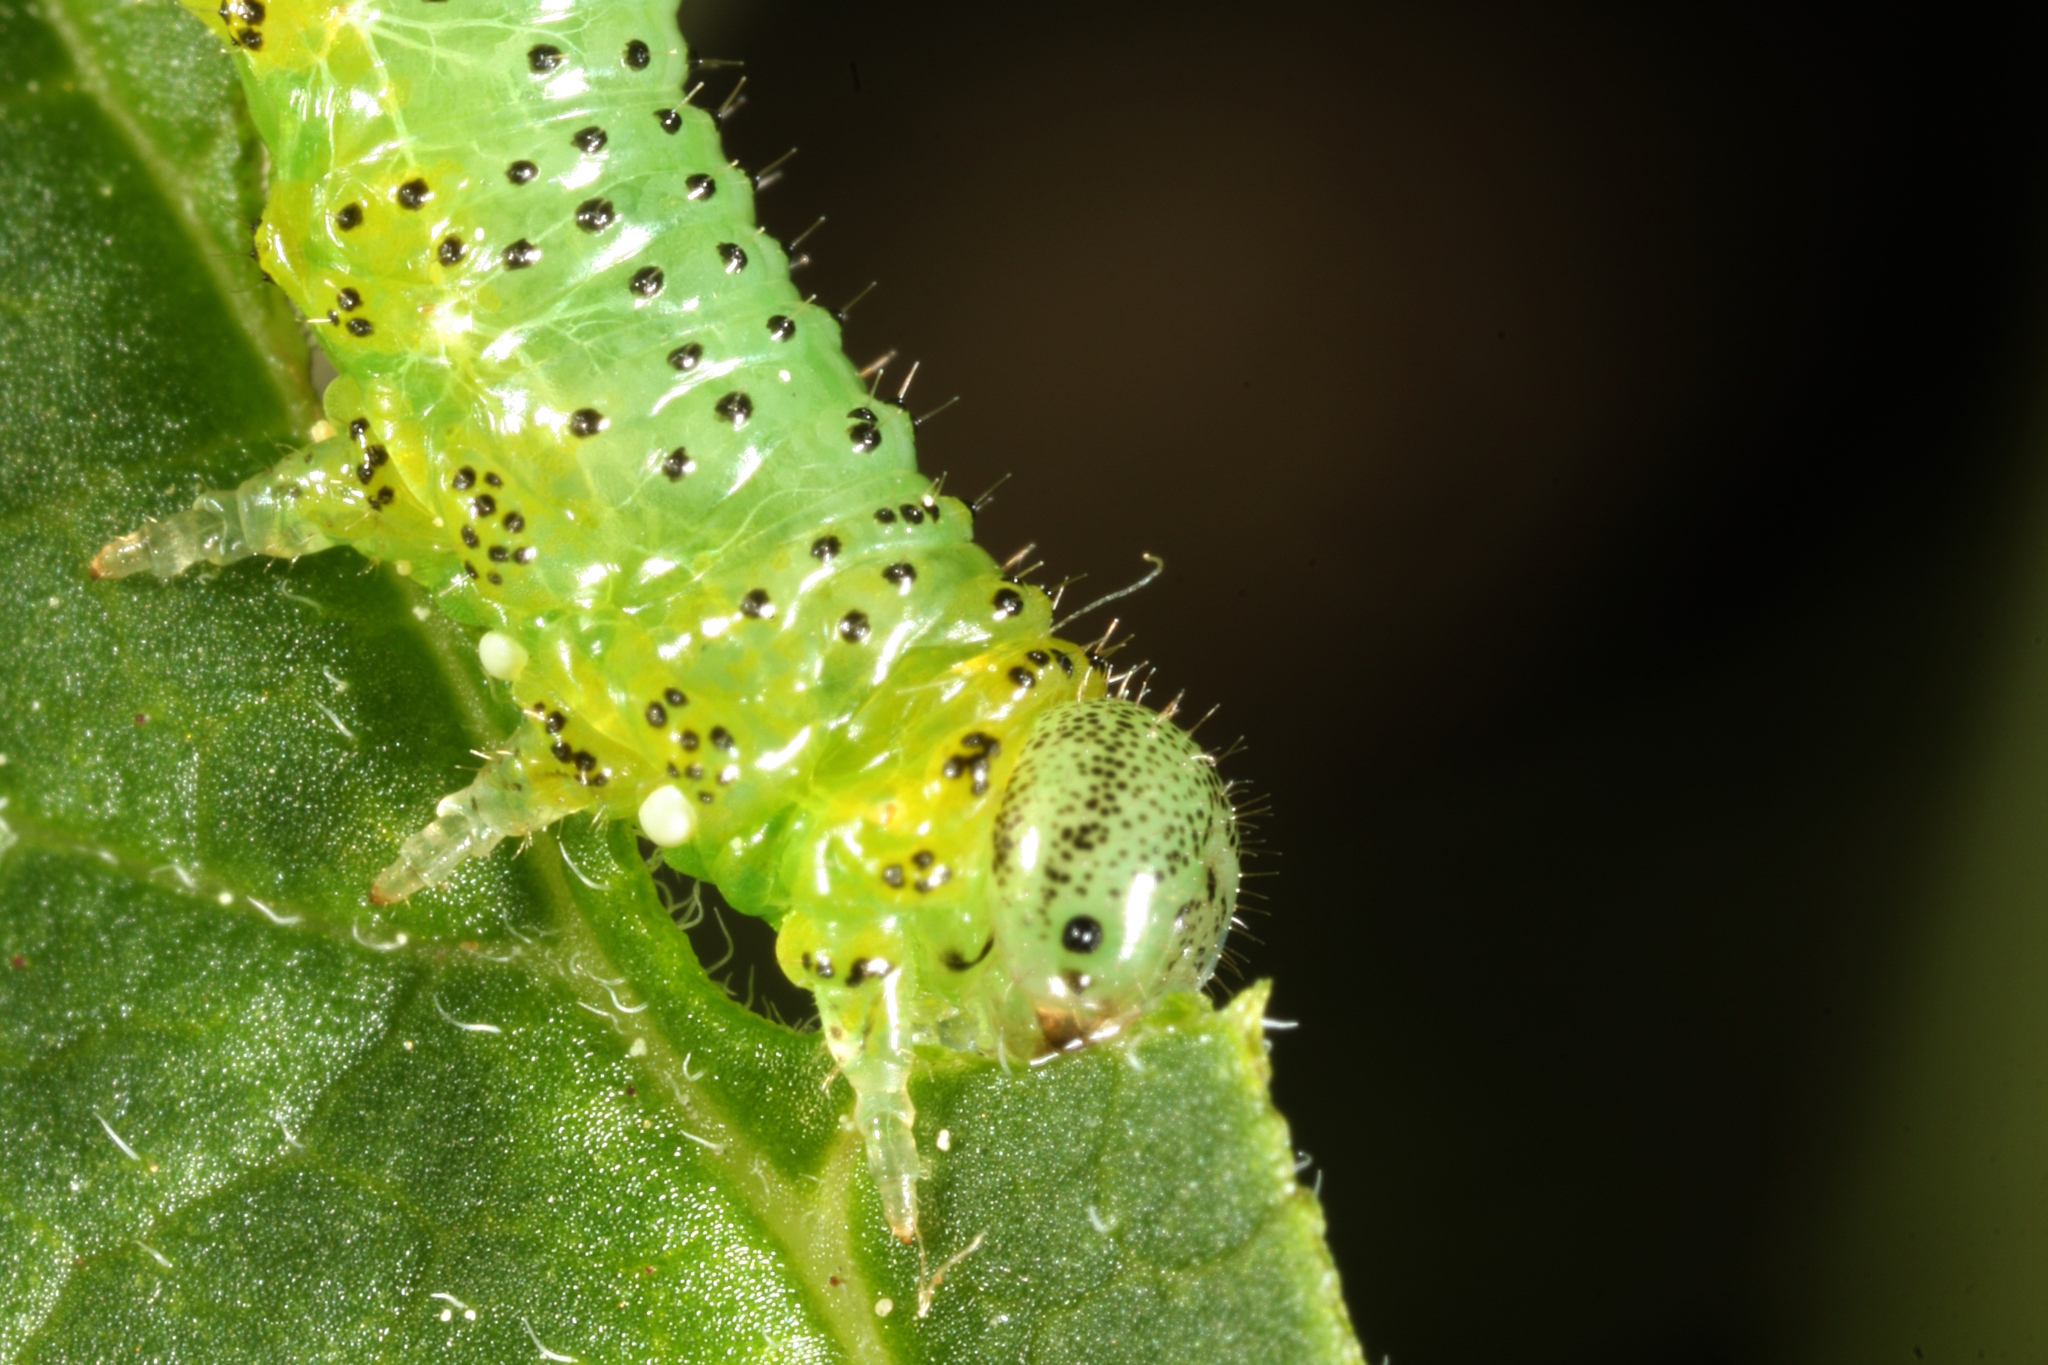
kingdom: Animalia
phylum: Arthropoda
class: Insecta
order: Hymenoptera
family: Tenthredinidae
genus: Euura
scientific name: Euura olfaciens
